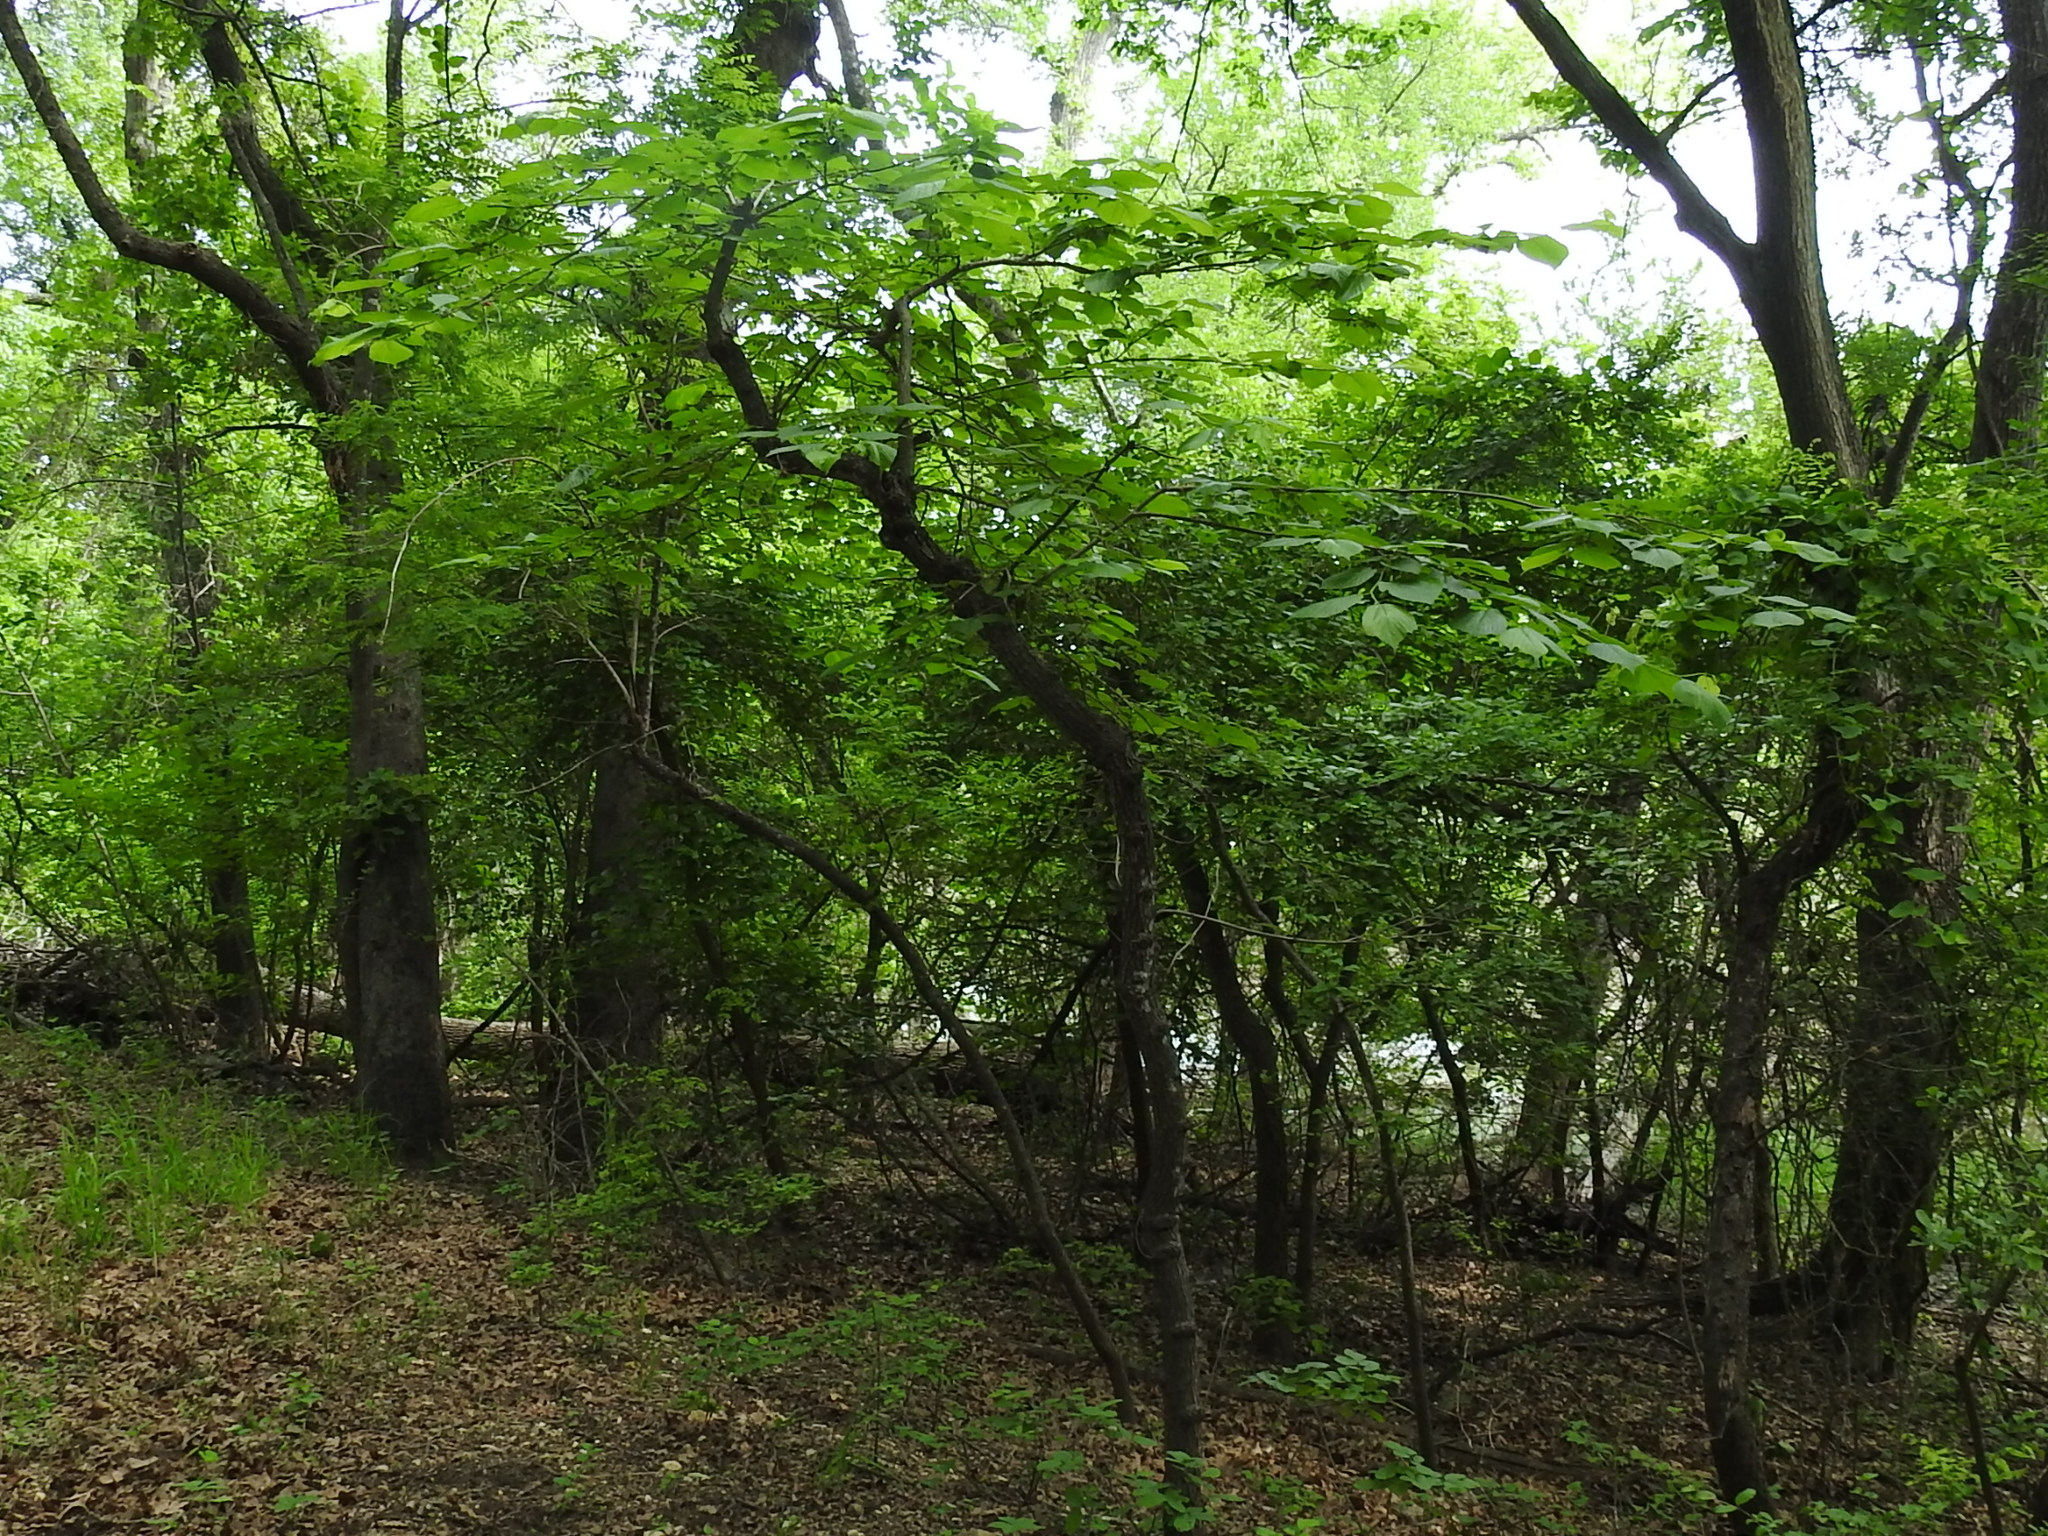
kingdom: Plantae
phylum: Tracheophyta
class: Magnoliopsida
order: Rosales
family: Moraceae
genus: Morus
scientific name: Morus rubra
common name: Red mulberry
